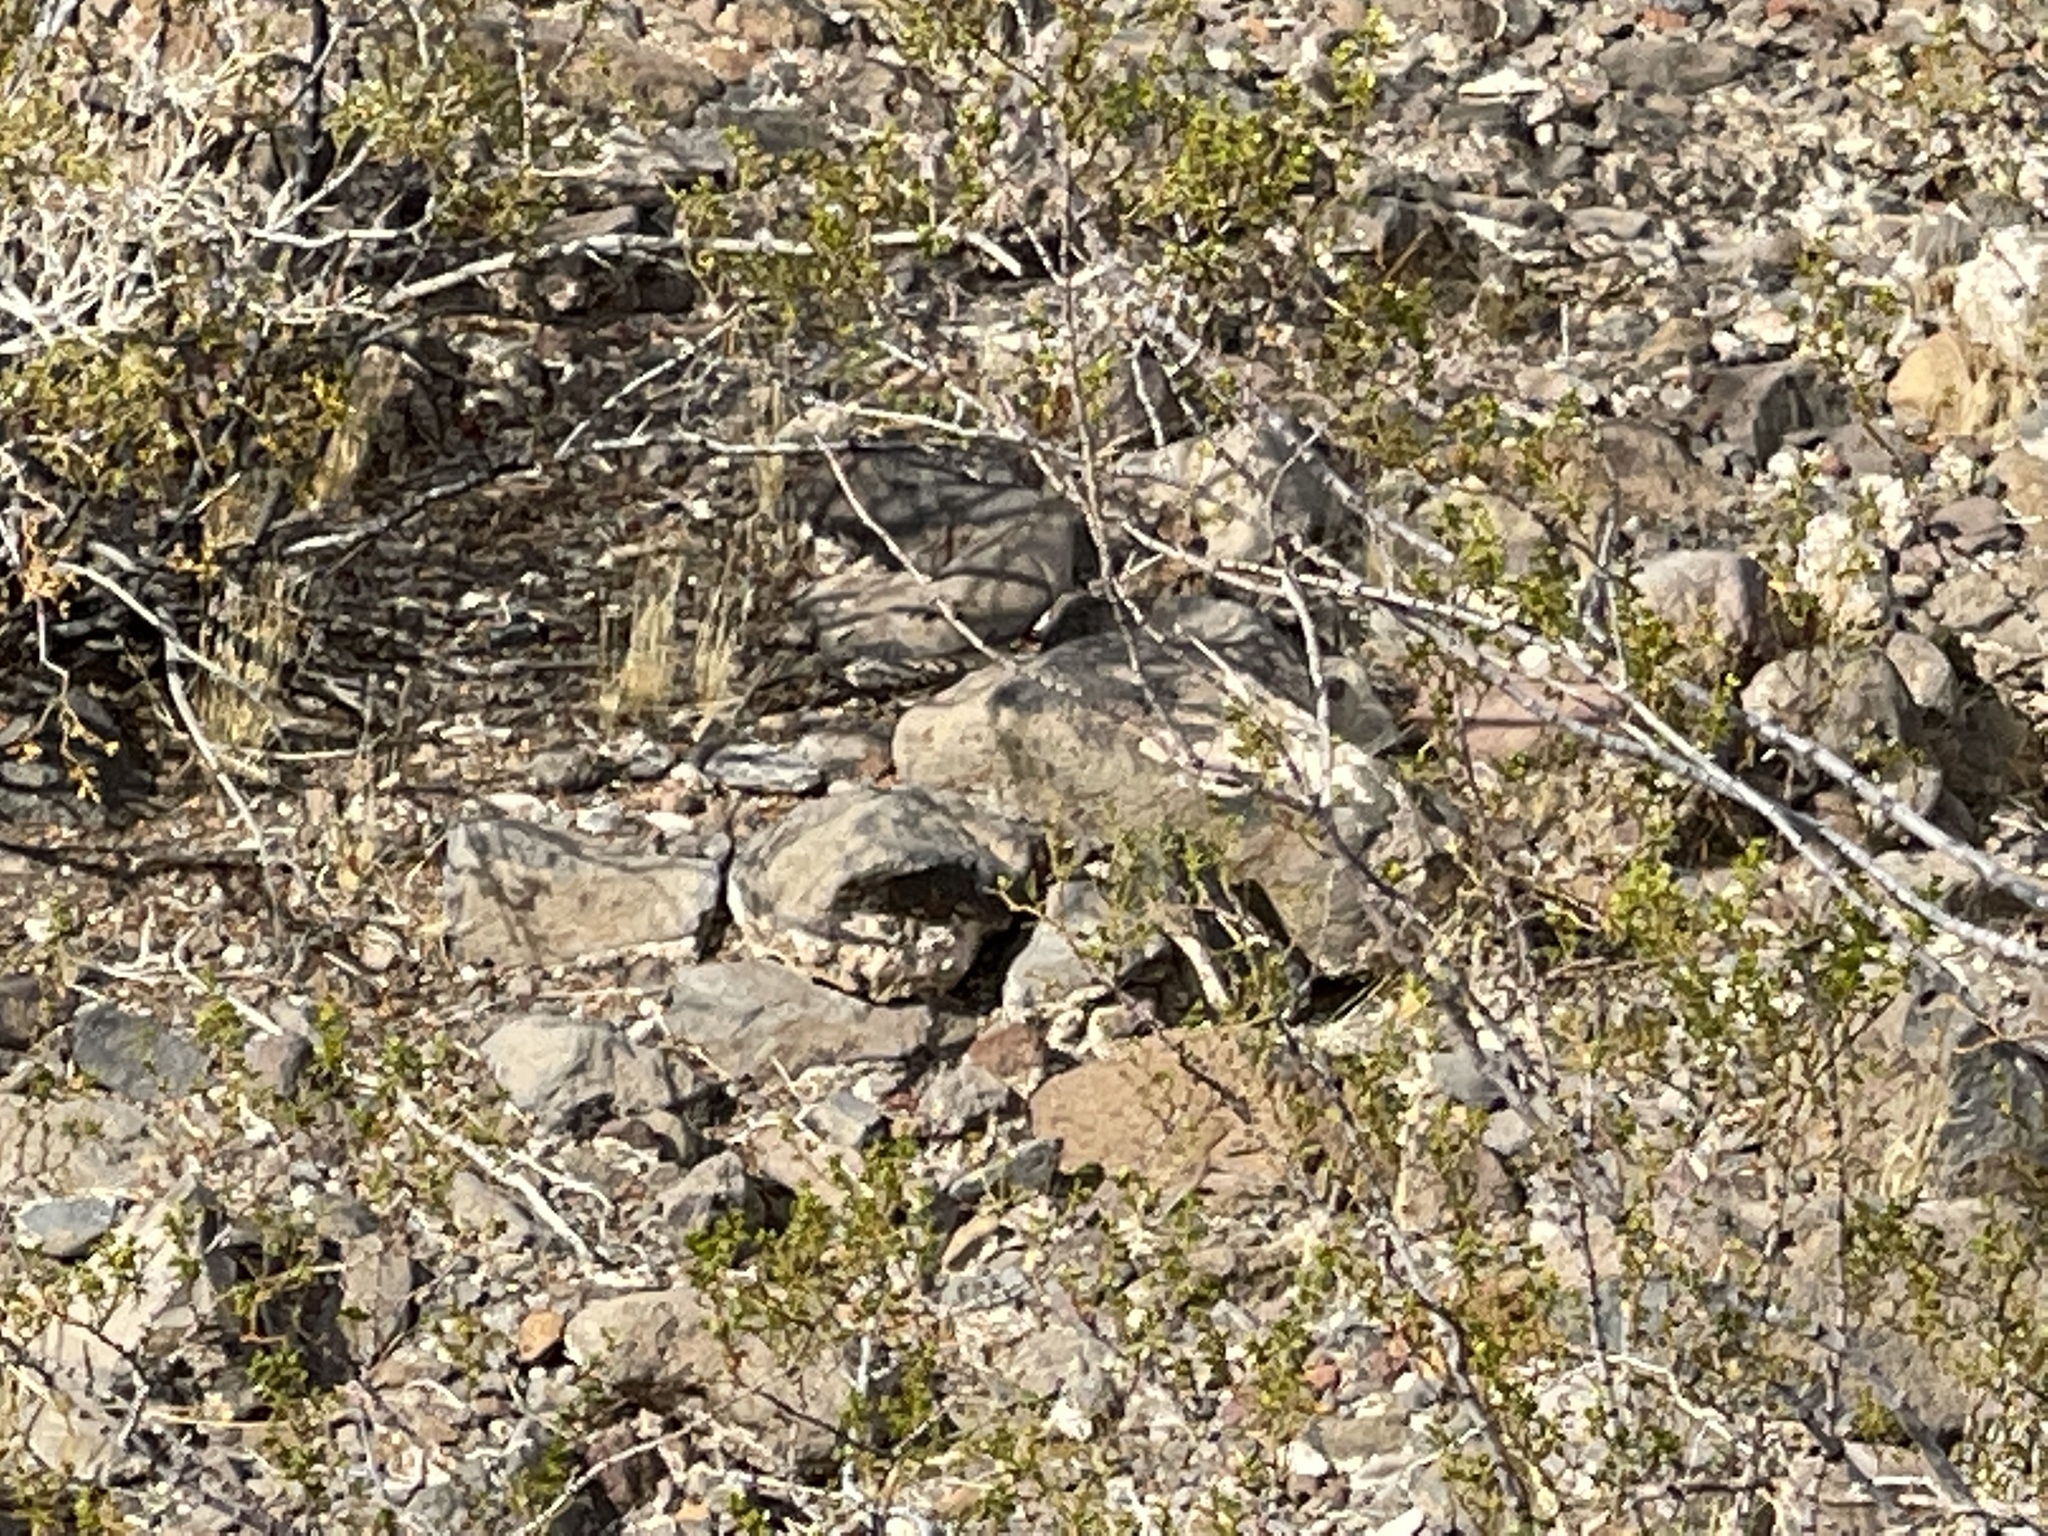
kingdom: Plantae
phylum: Tracheophyta
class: Magnoliopsida
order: Zygophyllales
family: Zygophyllaceae
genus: Larrea
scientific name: Larrea tridentata
